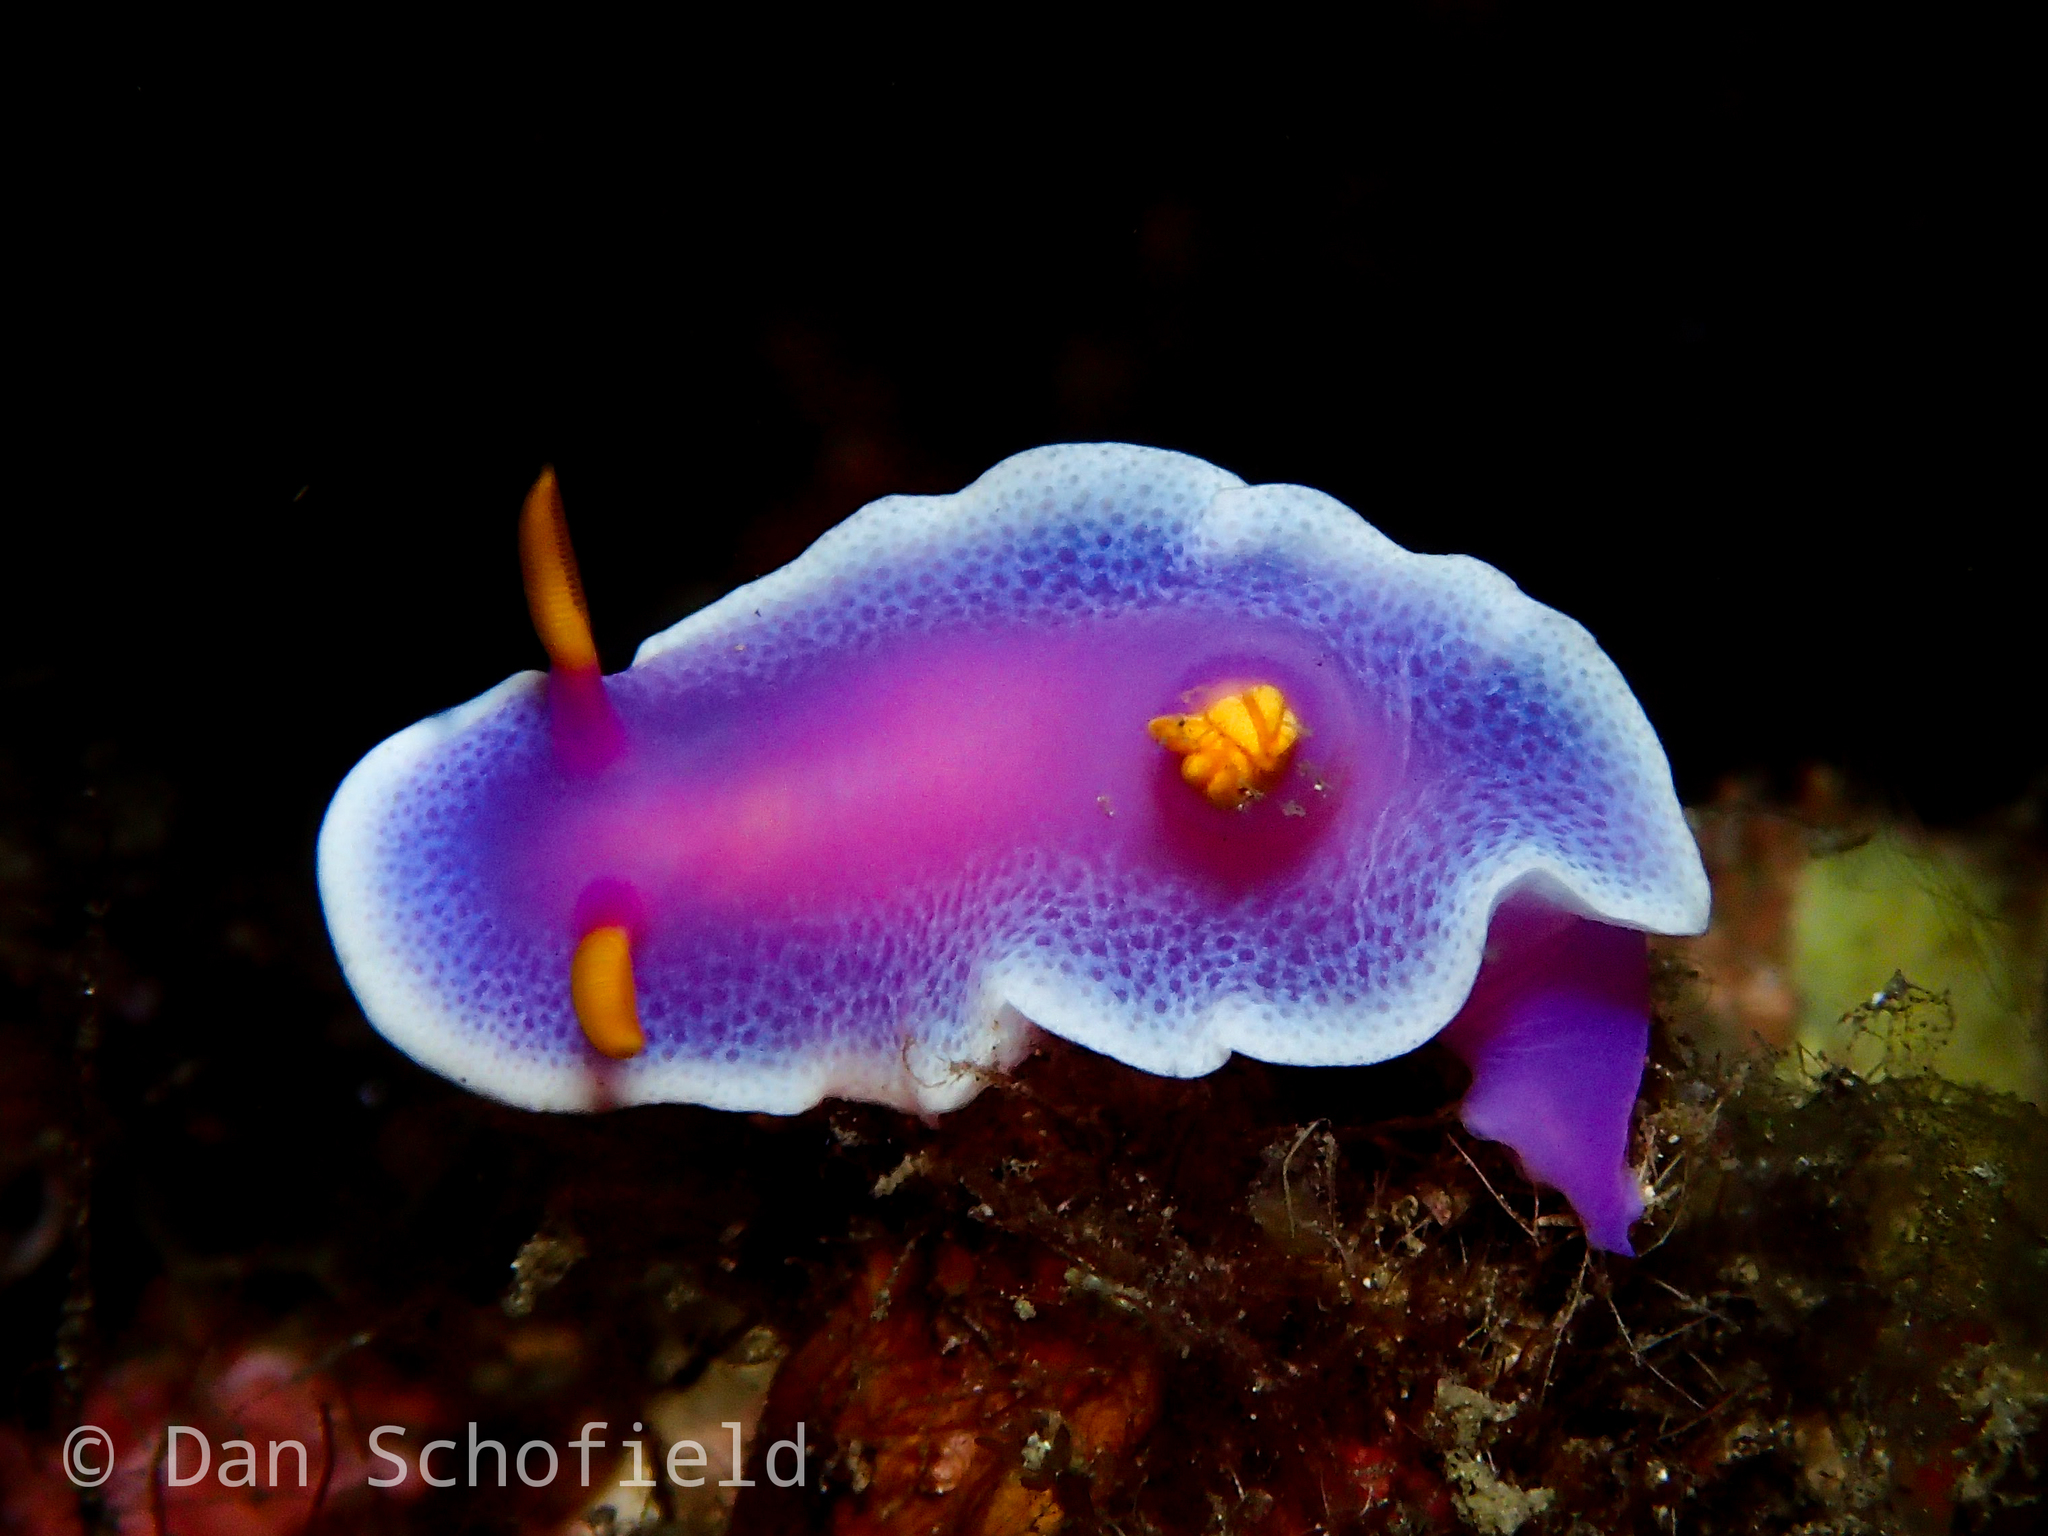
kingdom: Animalia
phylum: Mollusca
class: Gastropoda
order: Nudibranchia
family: Chromodorididae
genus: Hypselodoris
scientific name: Hypselodoris apolegma
